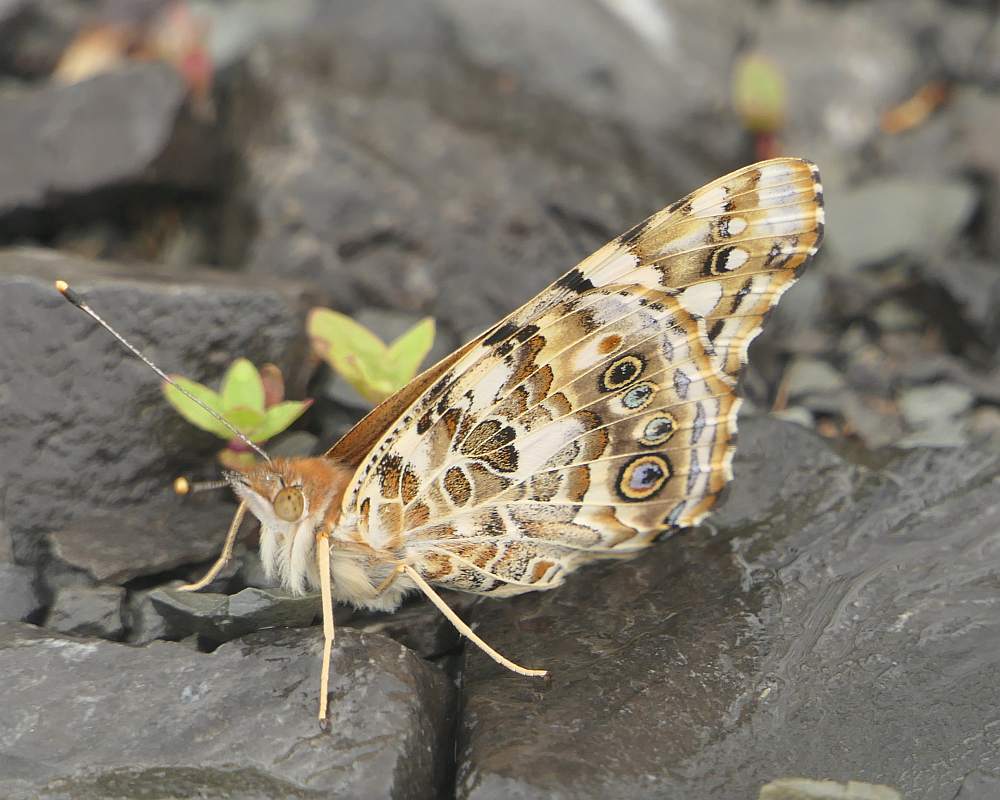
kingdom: Animalia
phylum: Arthropoda
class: Insecta
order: Lepidoptera
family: Nymphalidae
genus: Vanessa
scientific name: Vanessa cardui
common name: Painted lady
